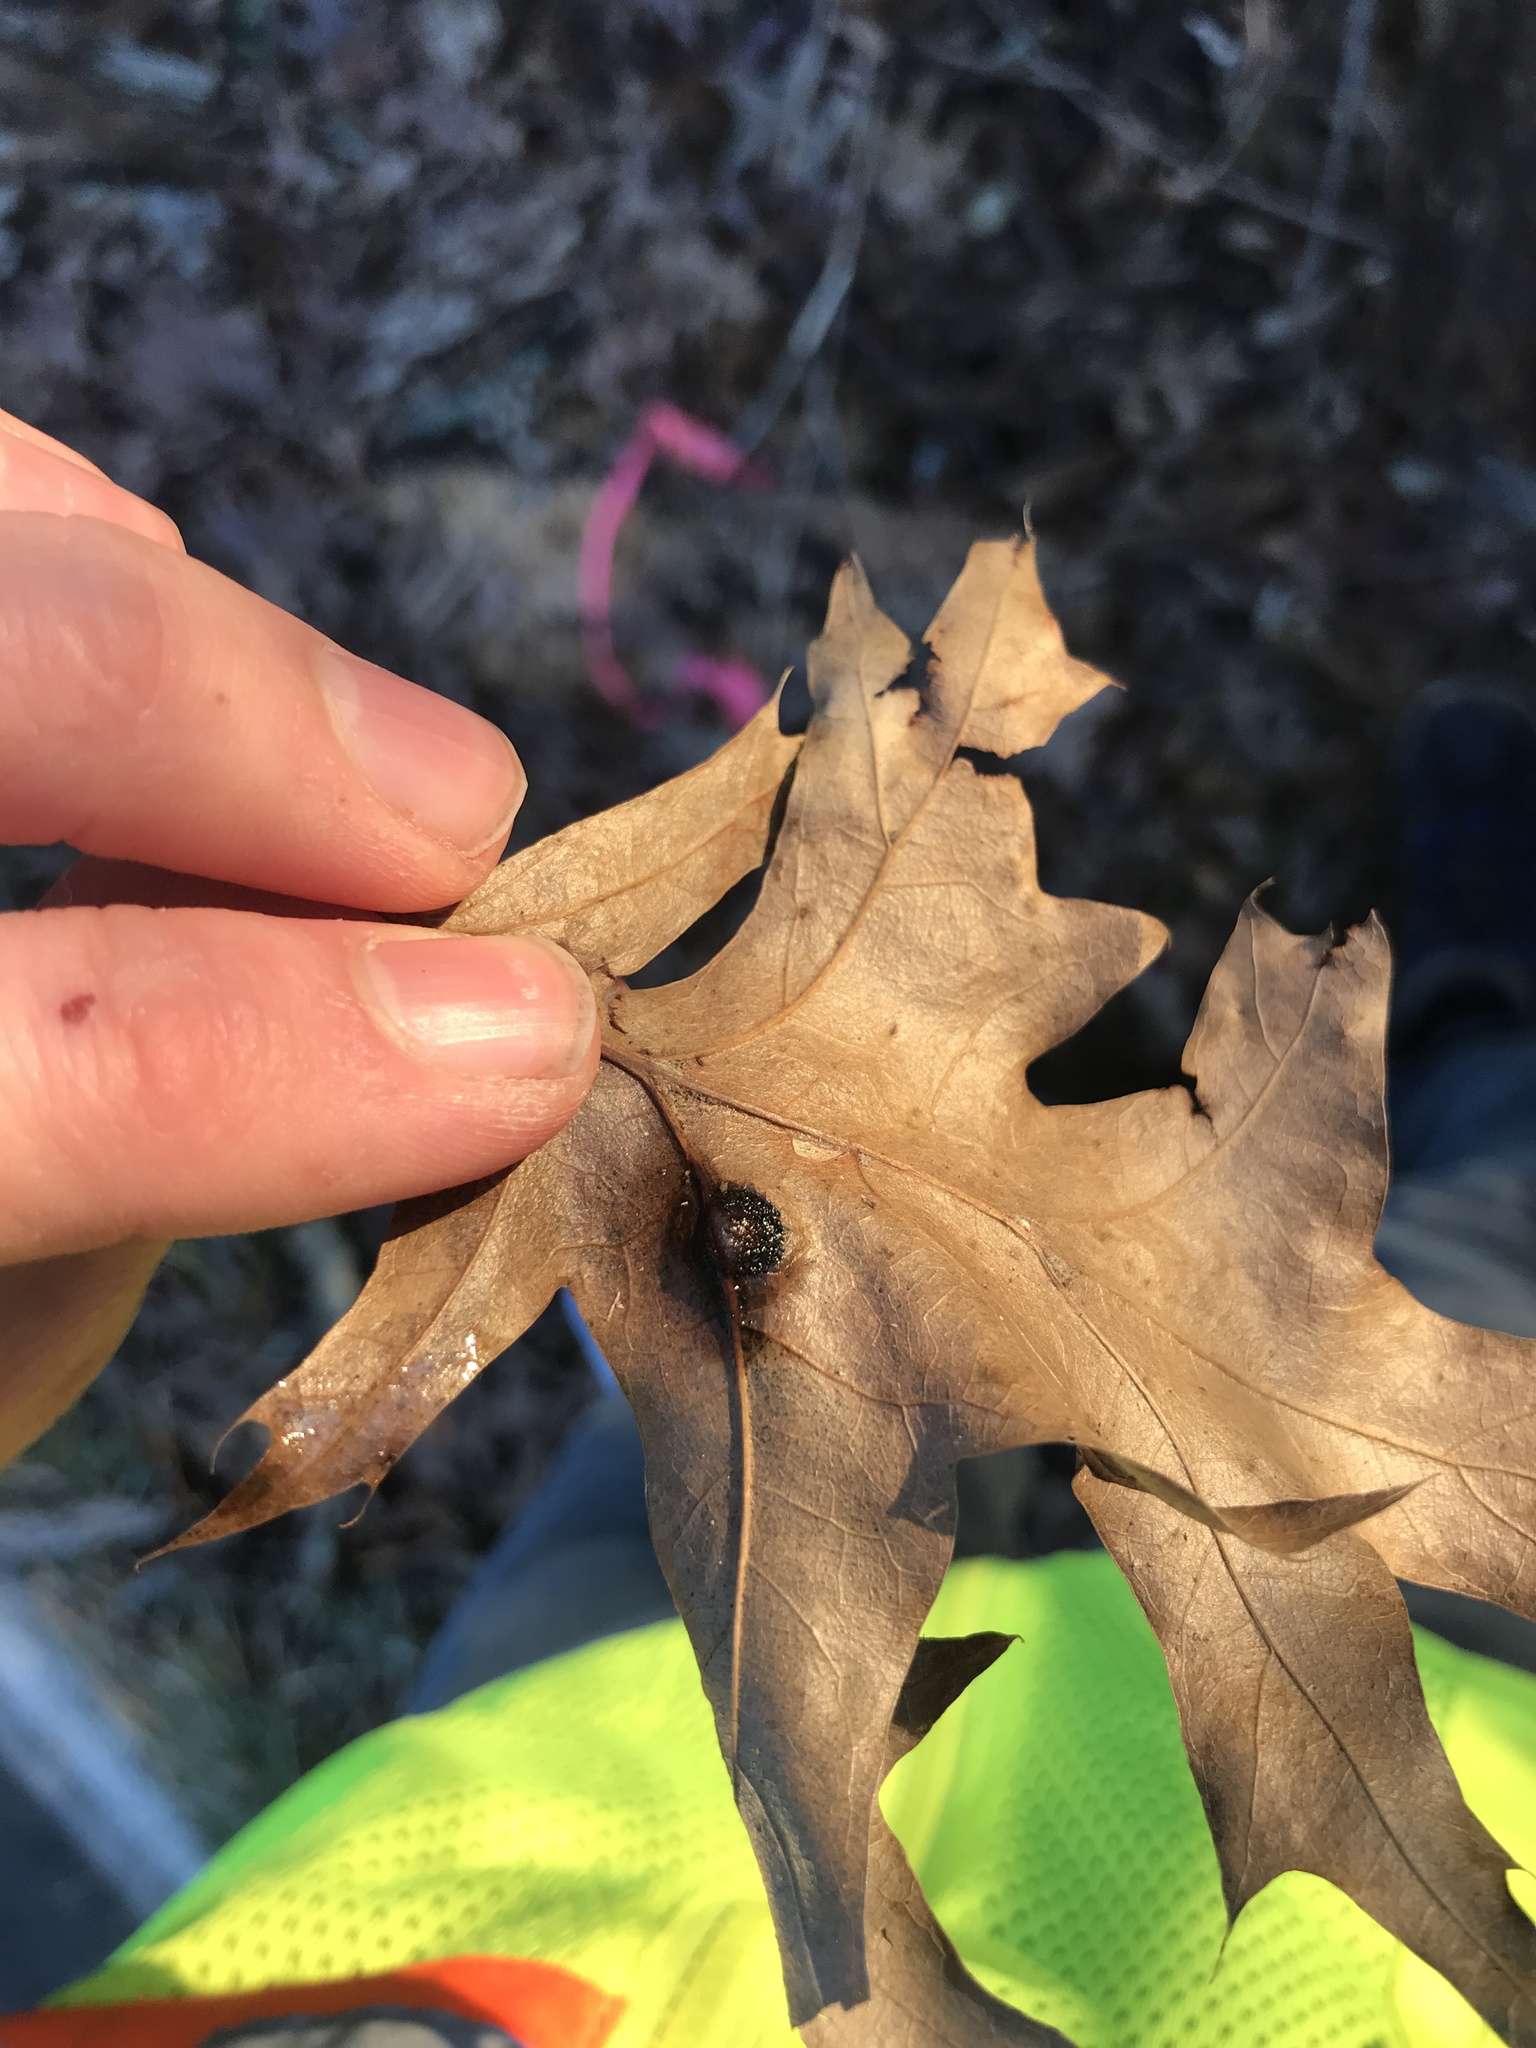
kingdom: Animalia
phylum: Arthropoda
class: Insecta
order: Diptera
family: Cecidomyiidae
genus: Polystepha
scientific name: Polystepha pilulae
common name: Oak leaf gall midge
